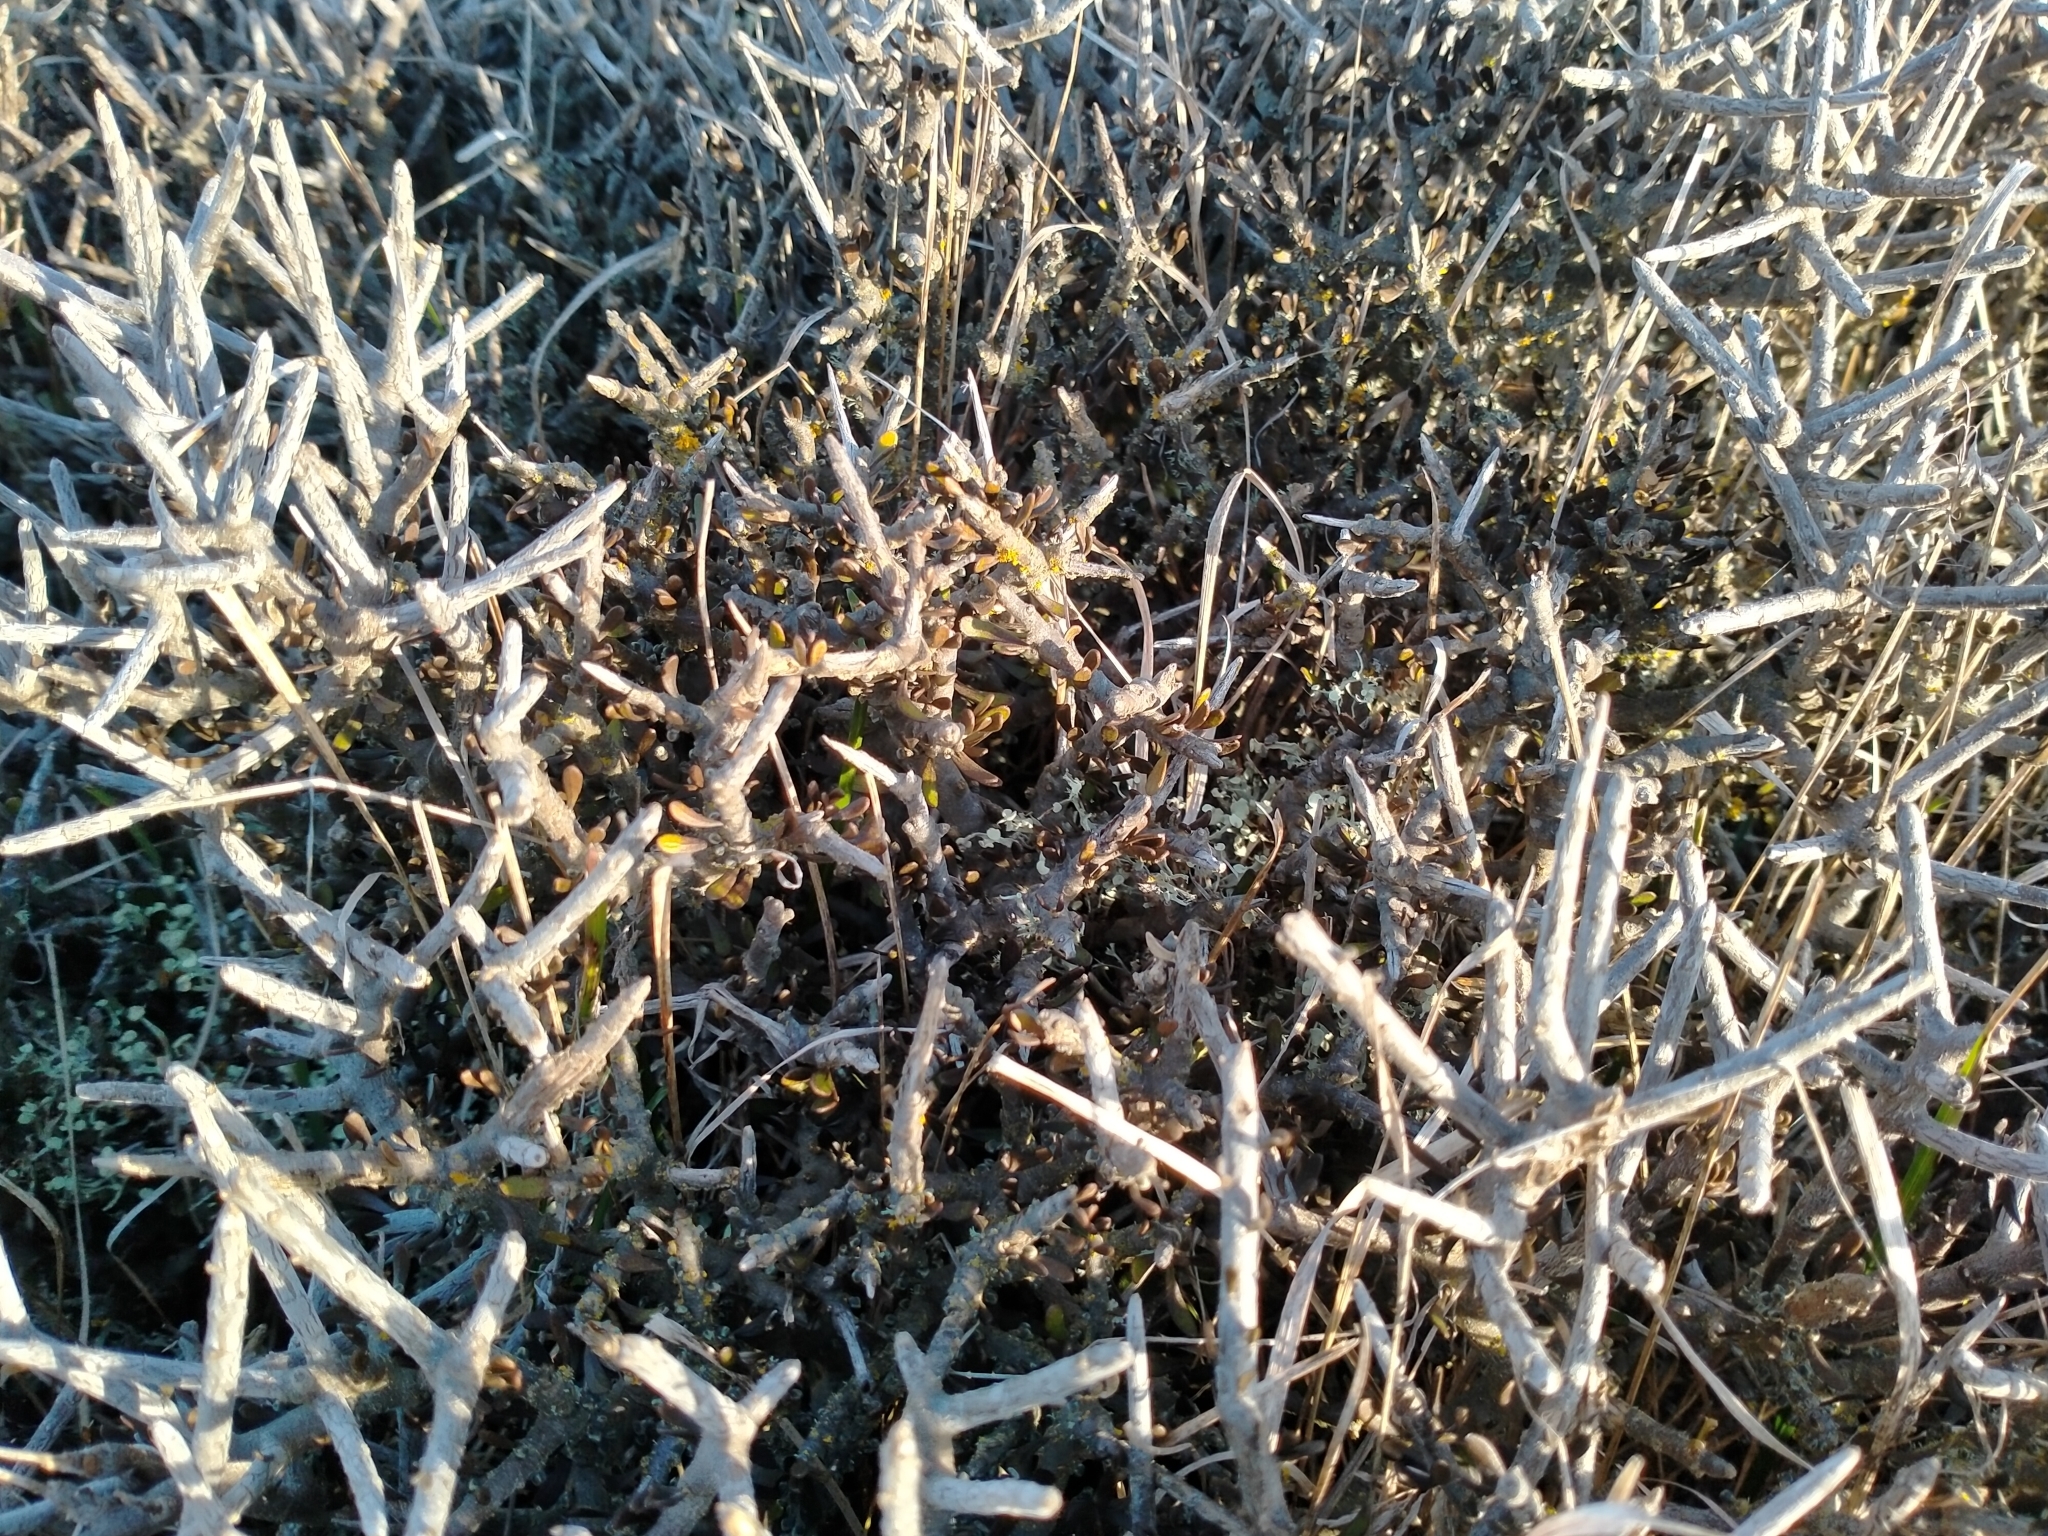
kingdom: Plantae
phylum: Tracheophyta
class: Magnoliopsida
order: Malpighiales
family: Violaceae
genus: Melicytus
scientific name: Melicytus alpinus
